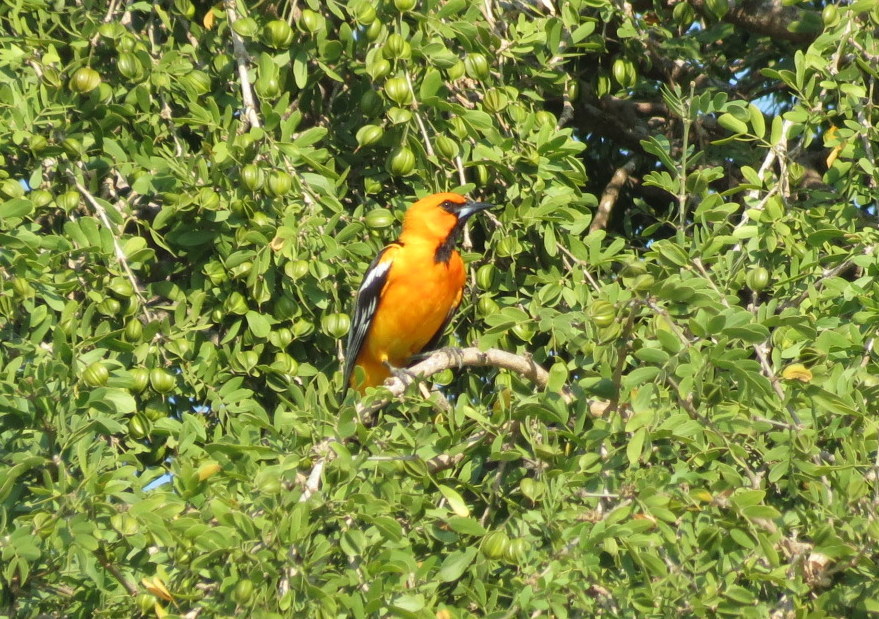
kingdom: Animalia
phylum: Chordata
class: Aves
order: Passeriformes
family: Icteridae
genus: Icterus
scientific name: Icterus pustulatus
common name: Streak-backed oriole
